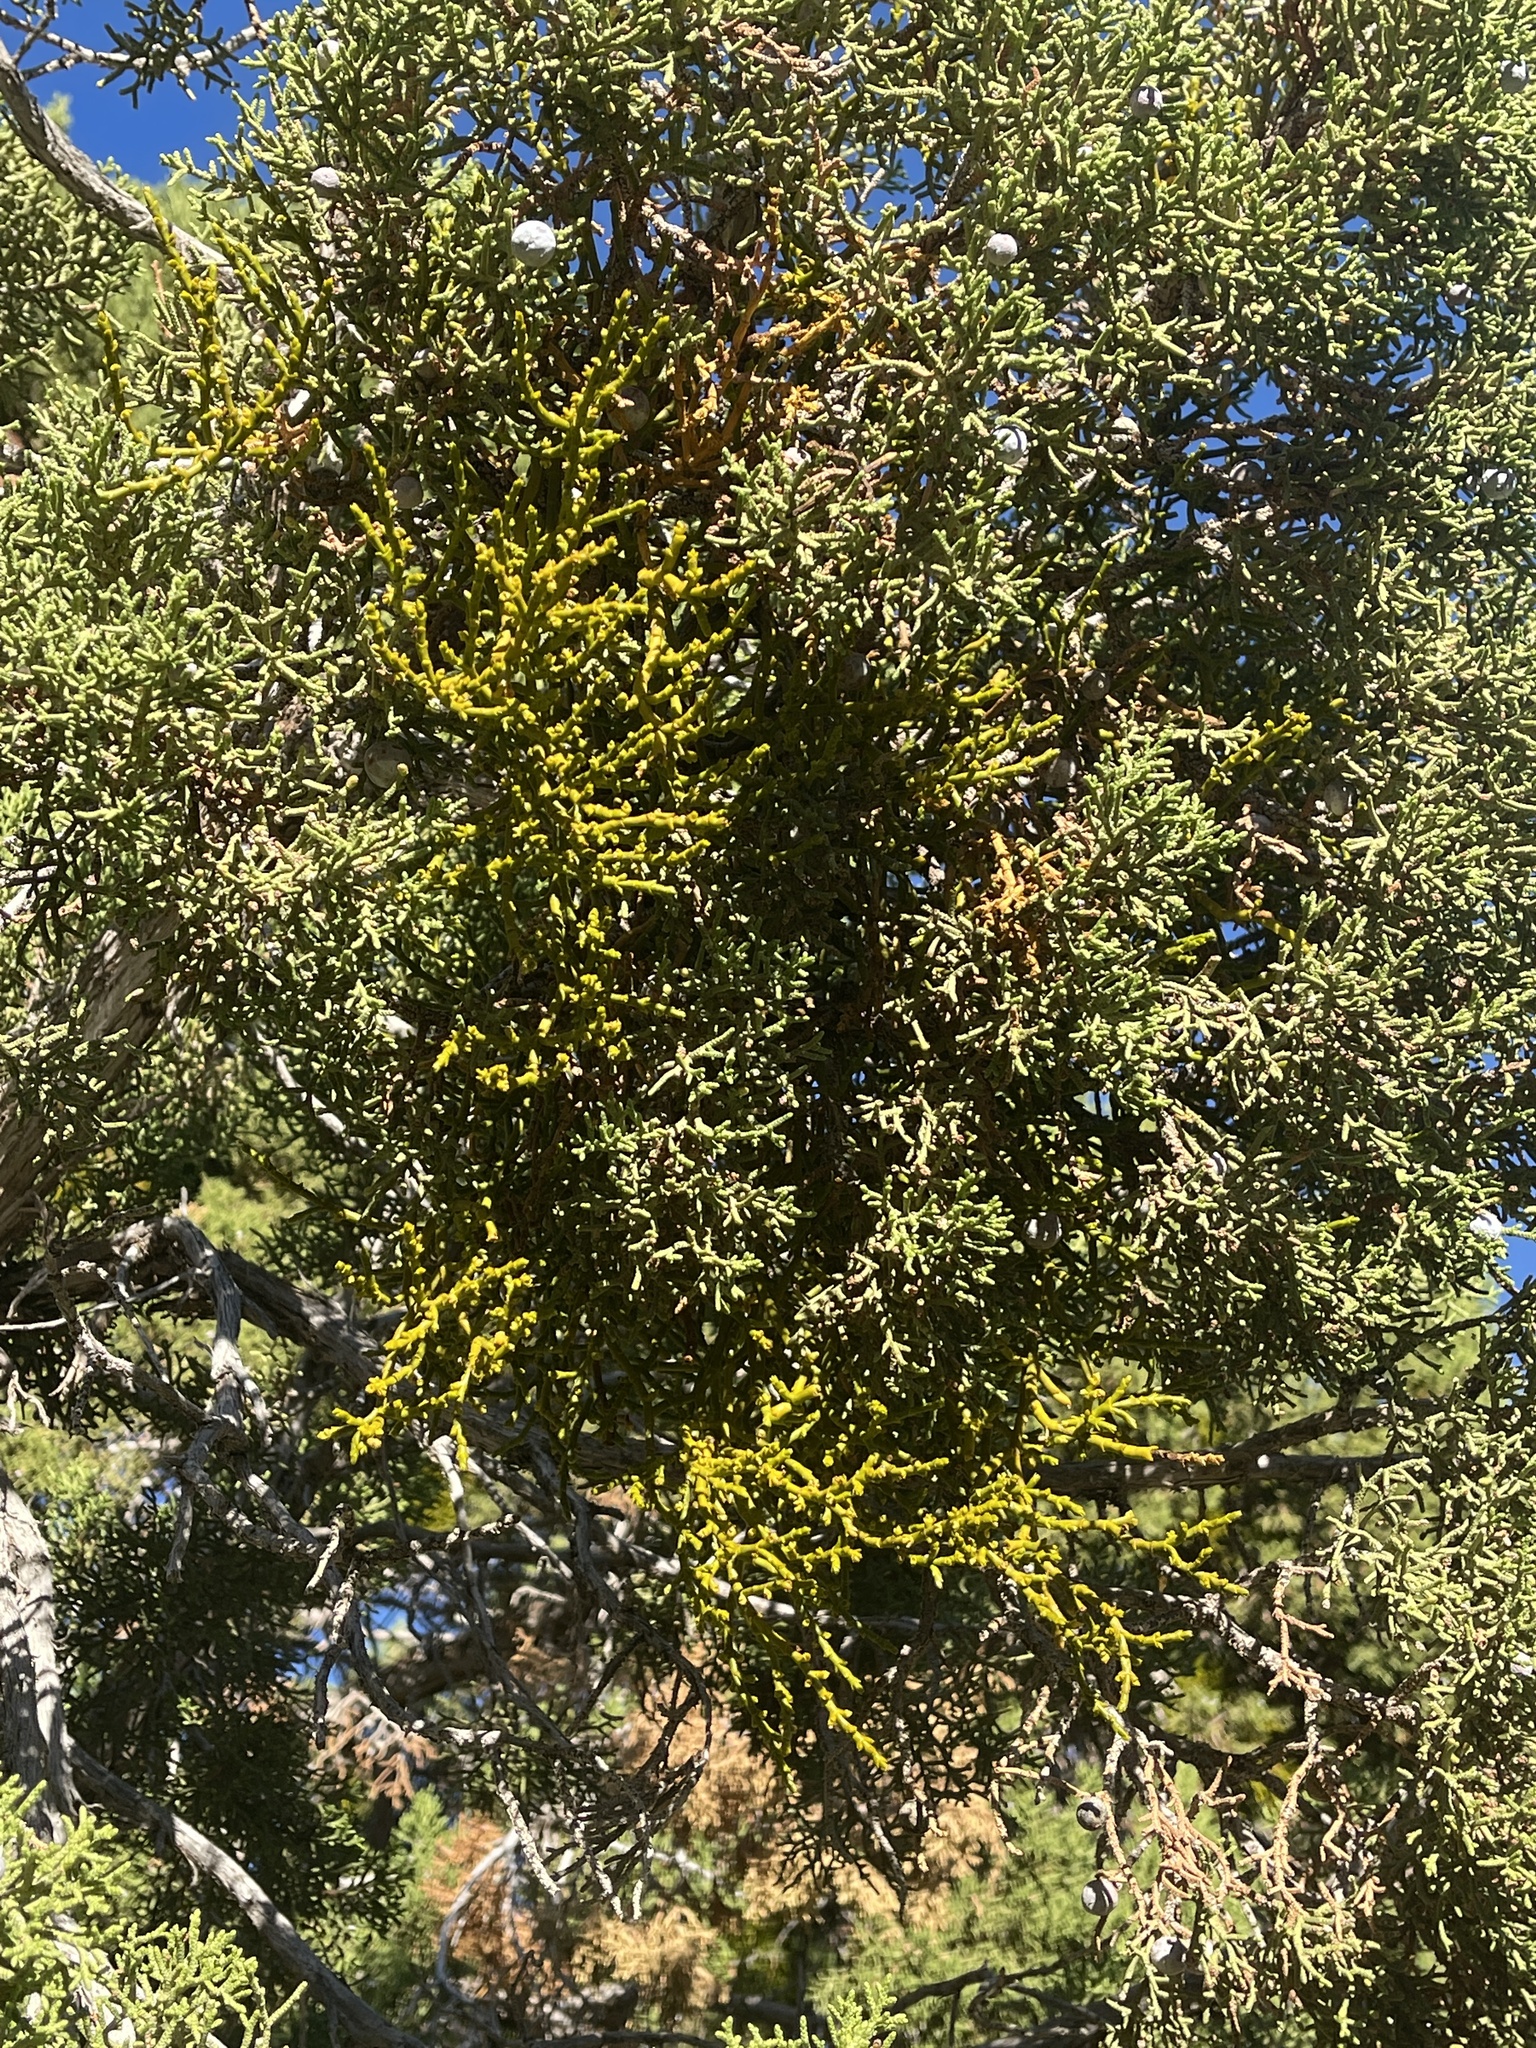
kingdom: Plantae
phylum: Tracheophyta
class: Magnoliopsida
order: Santalales
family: Viscaceae
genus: Phoradendron
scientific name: Phoradendron juniperinum
